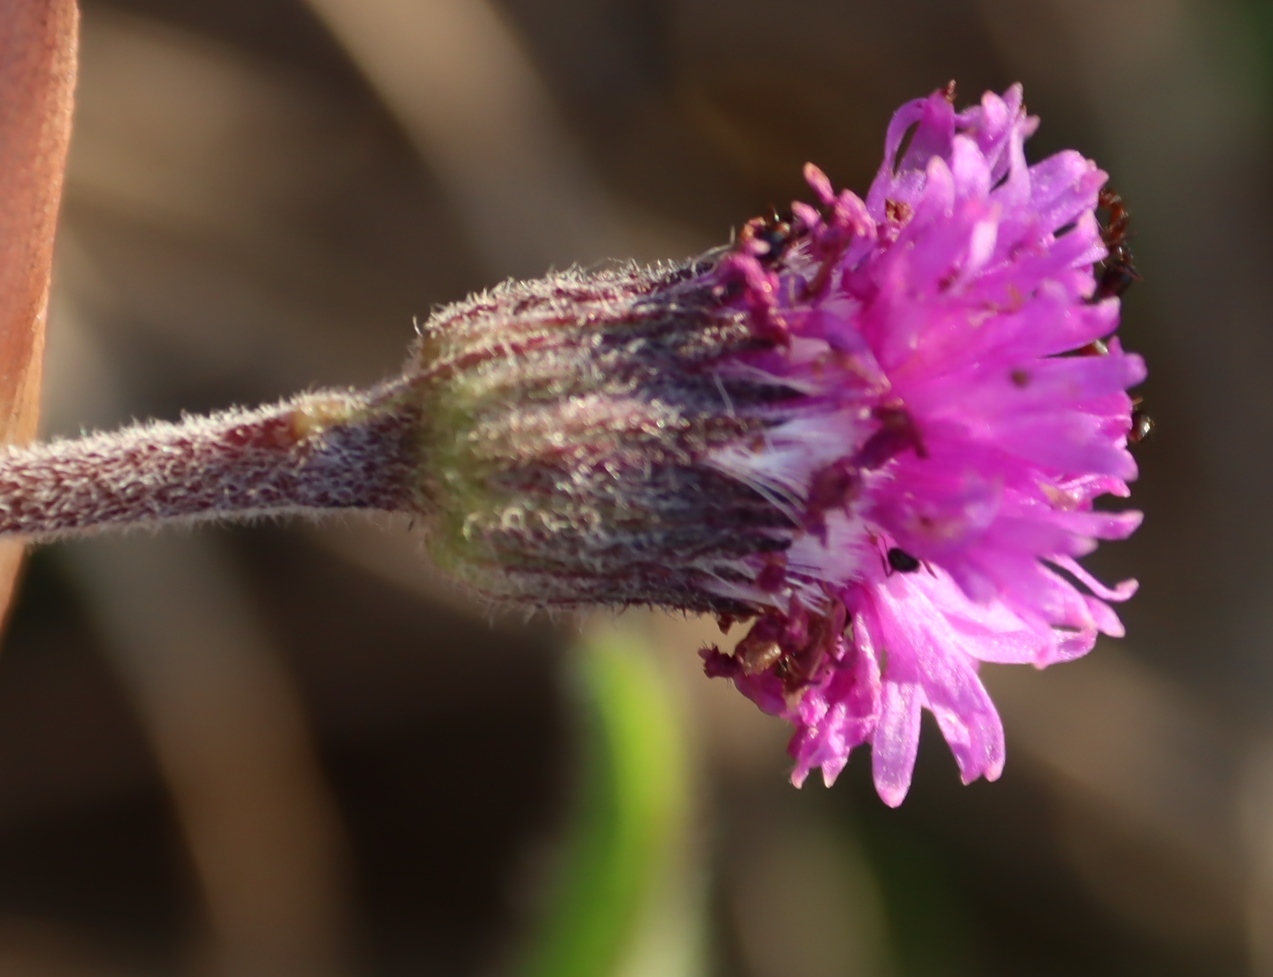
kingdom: Plantae
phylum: Tracheophyta
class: Magnoliopsida
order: Asterales
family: Asteraceae
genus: Pseudopegolettia
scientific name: Pseudopegolettia tenella
